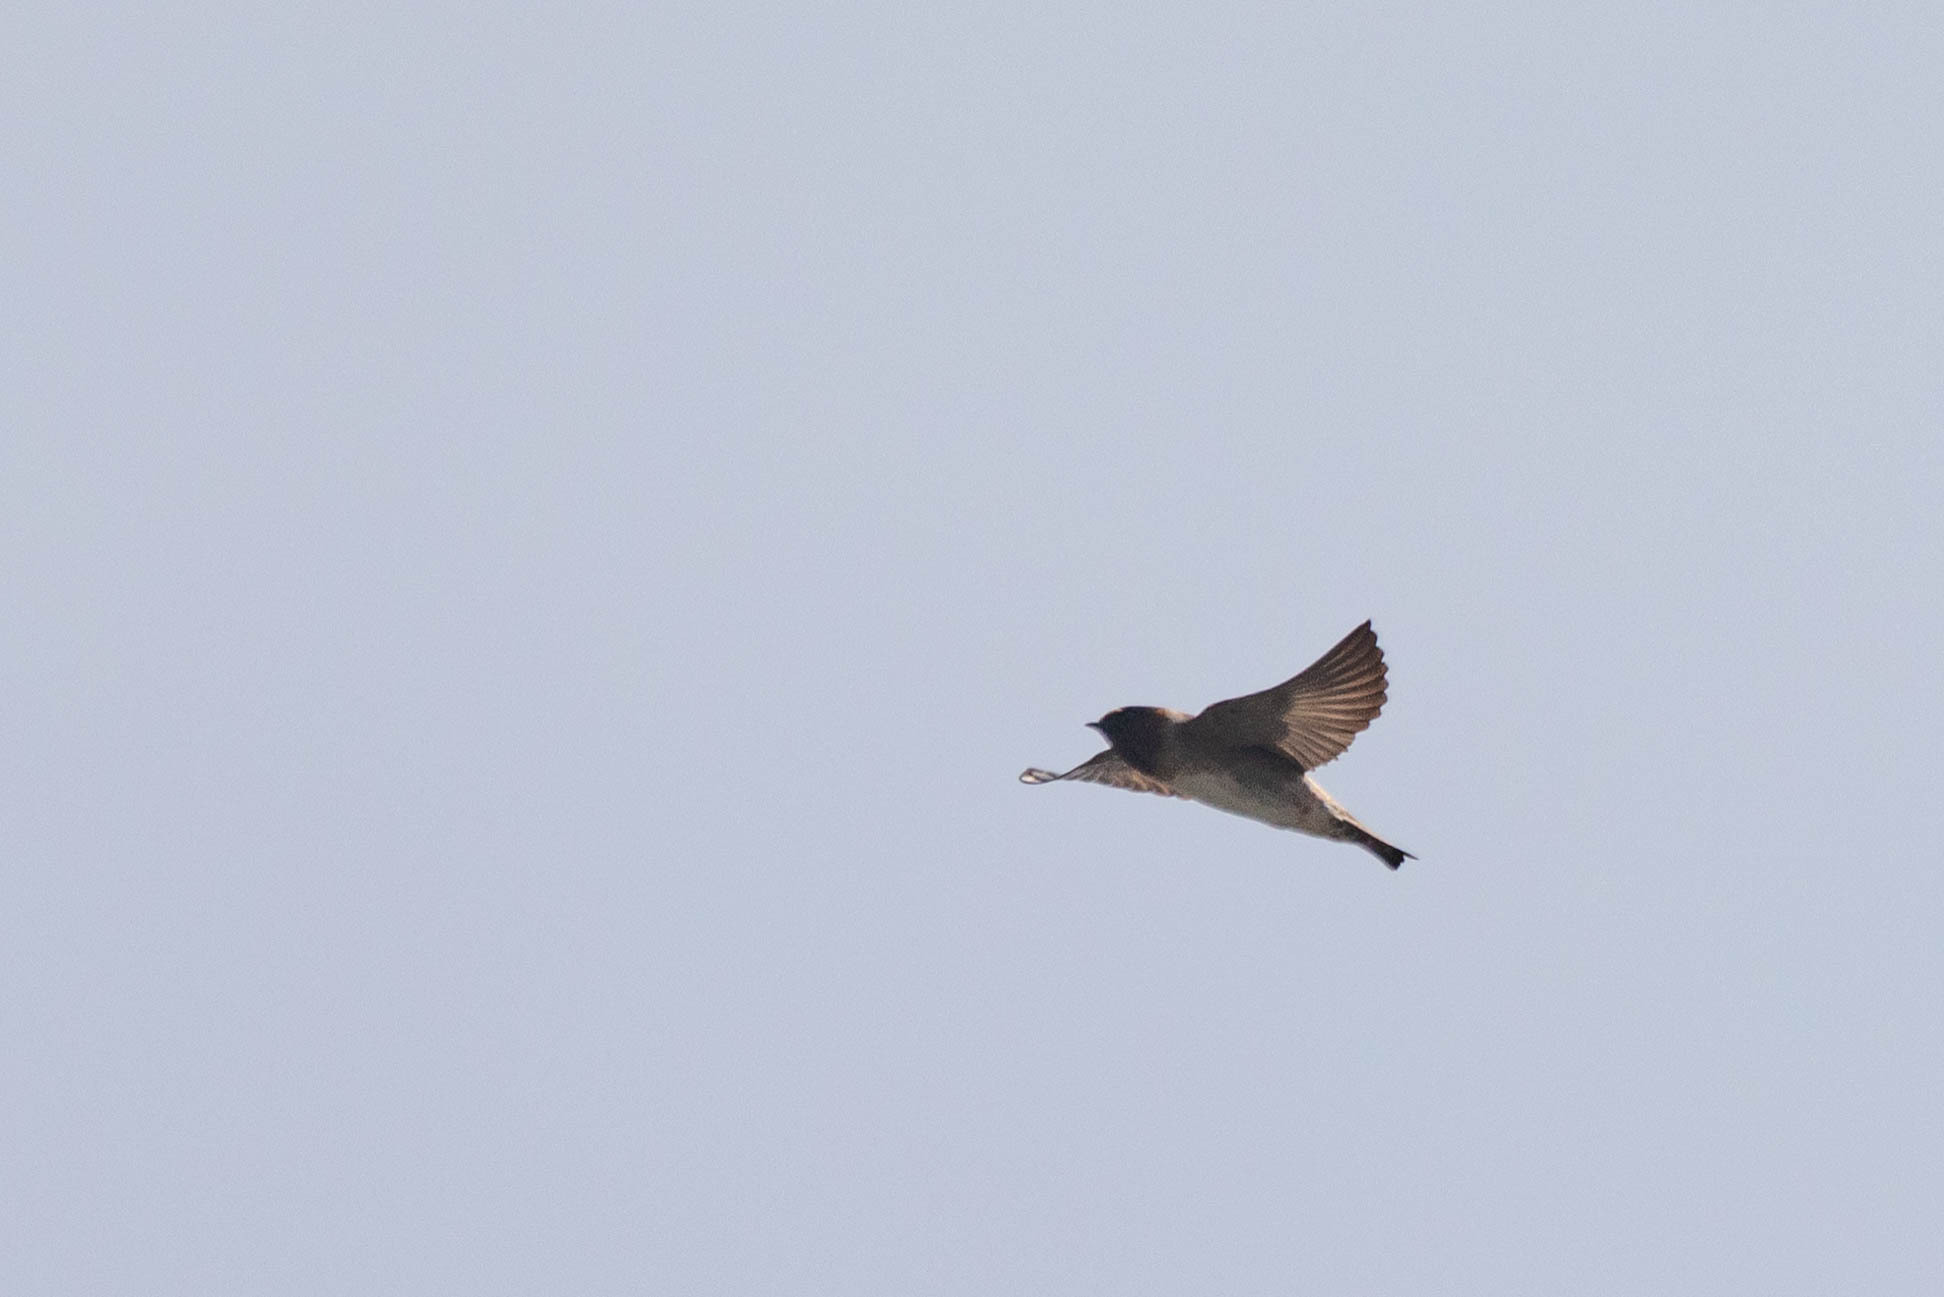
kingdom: Animalia
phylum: Chordata
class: Aves
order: Passeriformes
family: Hirundinidae
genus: Petrochelidon
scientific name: Petrochelidon pyrrhonota
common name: American cliff swallow
